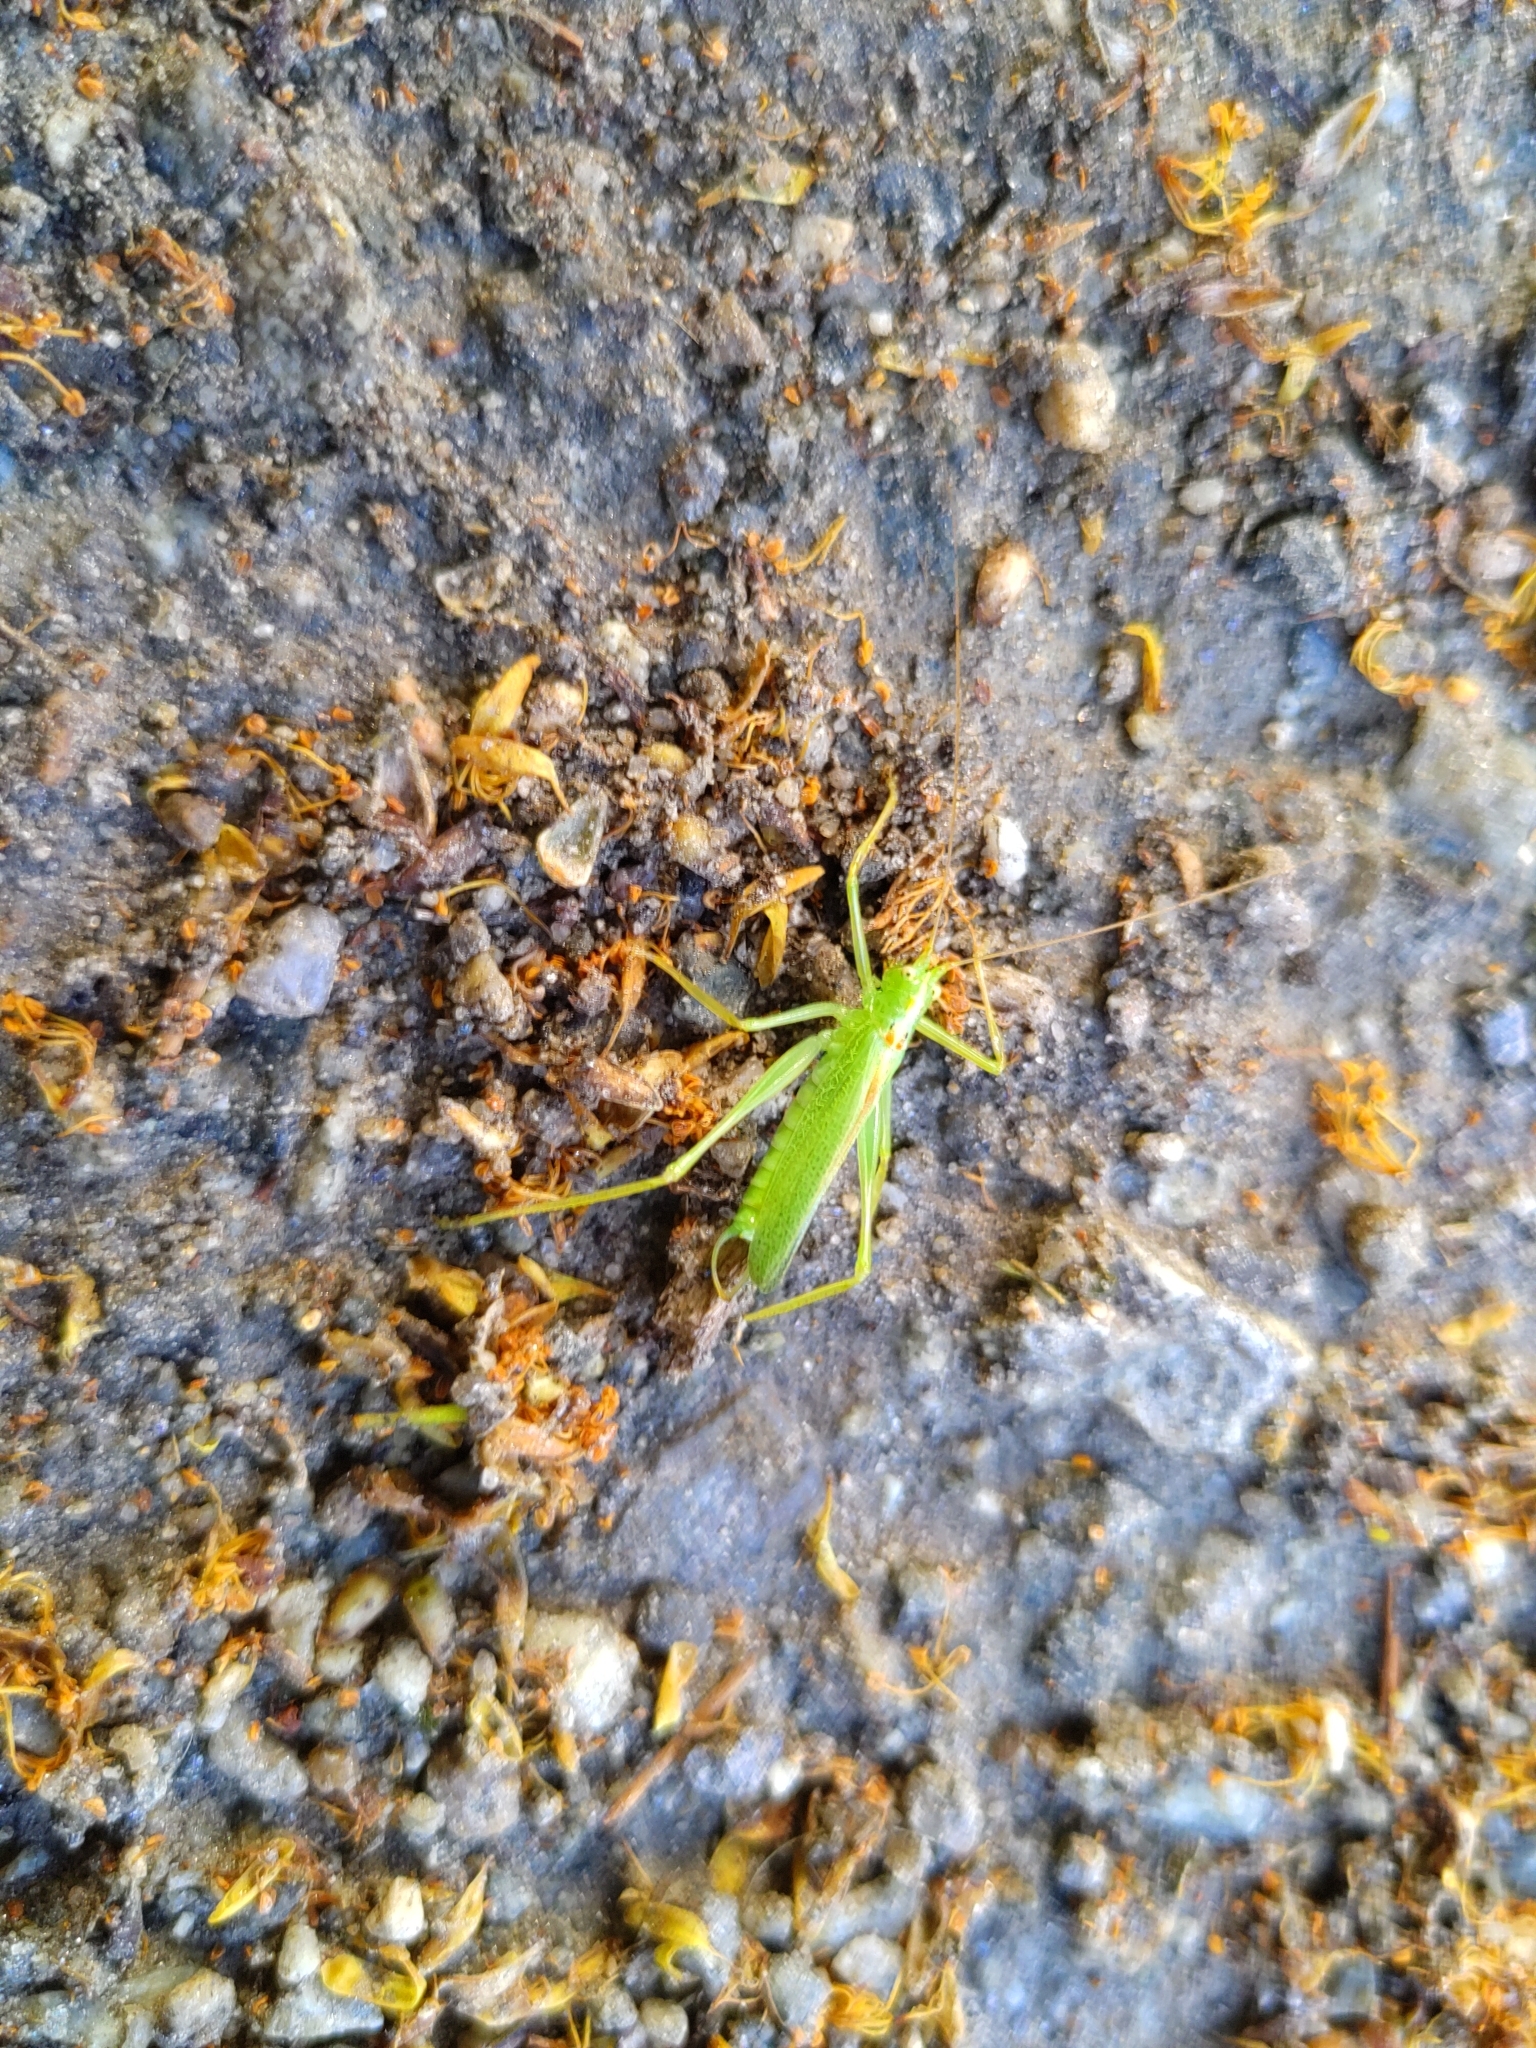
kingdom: Animalia
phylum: Arthropoda
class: Insecta
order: Orthoptera
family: Tettigoniidae
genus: Meconema
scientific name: Meconema thalassinum
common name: Oak bush-cricket
